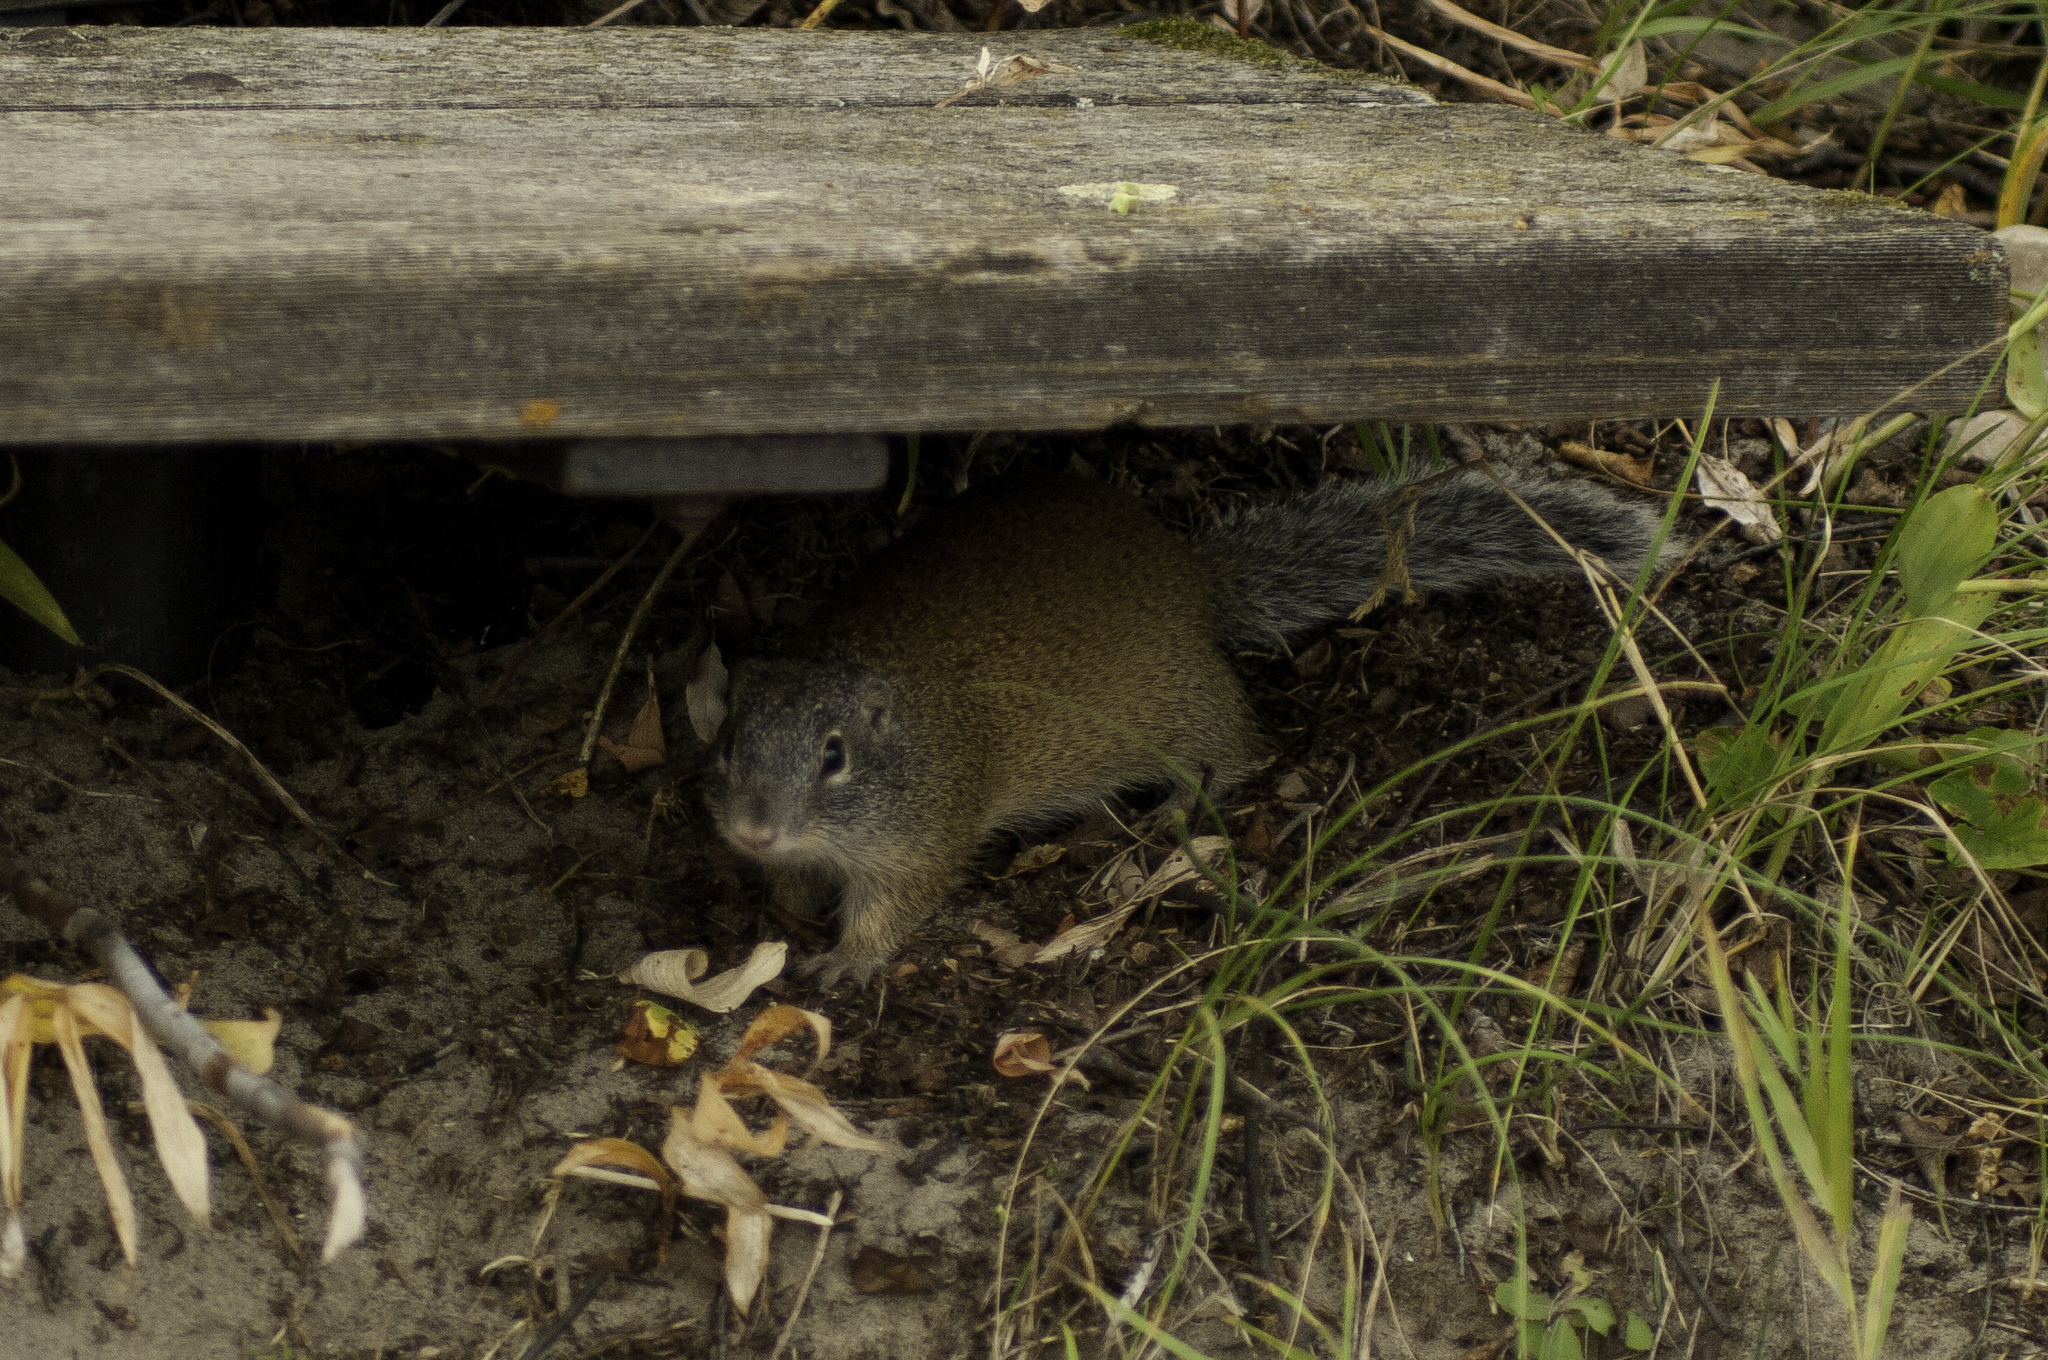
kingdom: Animalia
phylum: Chordata
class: Mammalia
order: Rodentia
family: Sciuridae
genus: Poliocitellus
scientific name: Poliocitellus franklinii
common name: Franklin's ground squirrel
